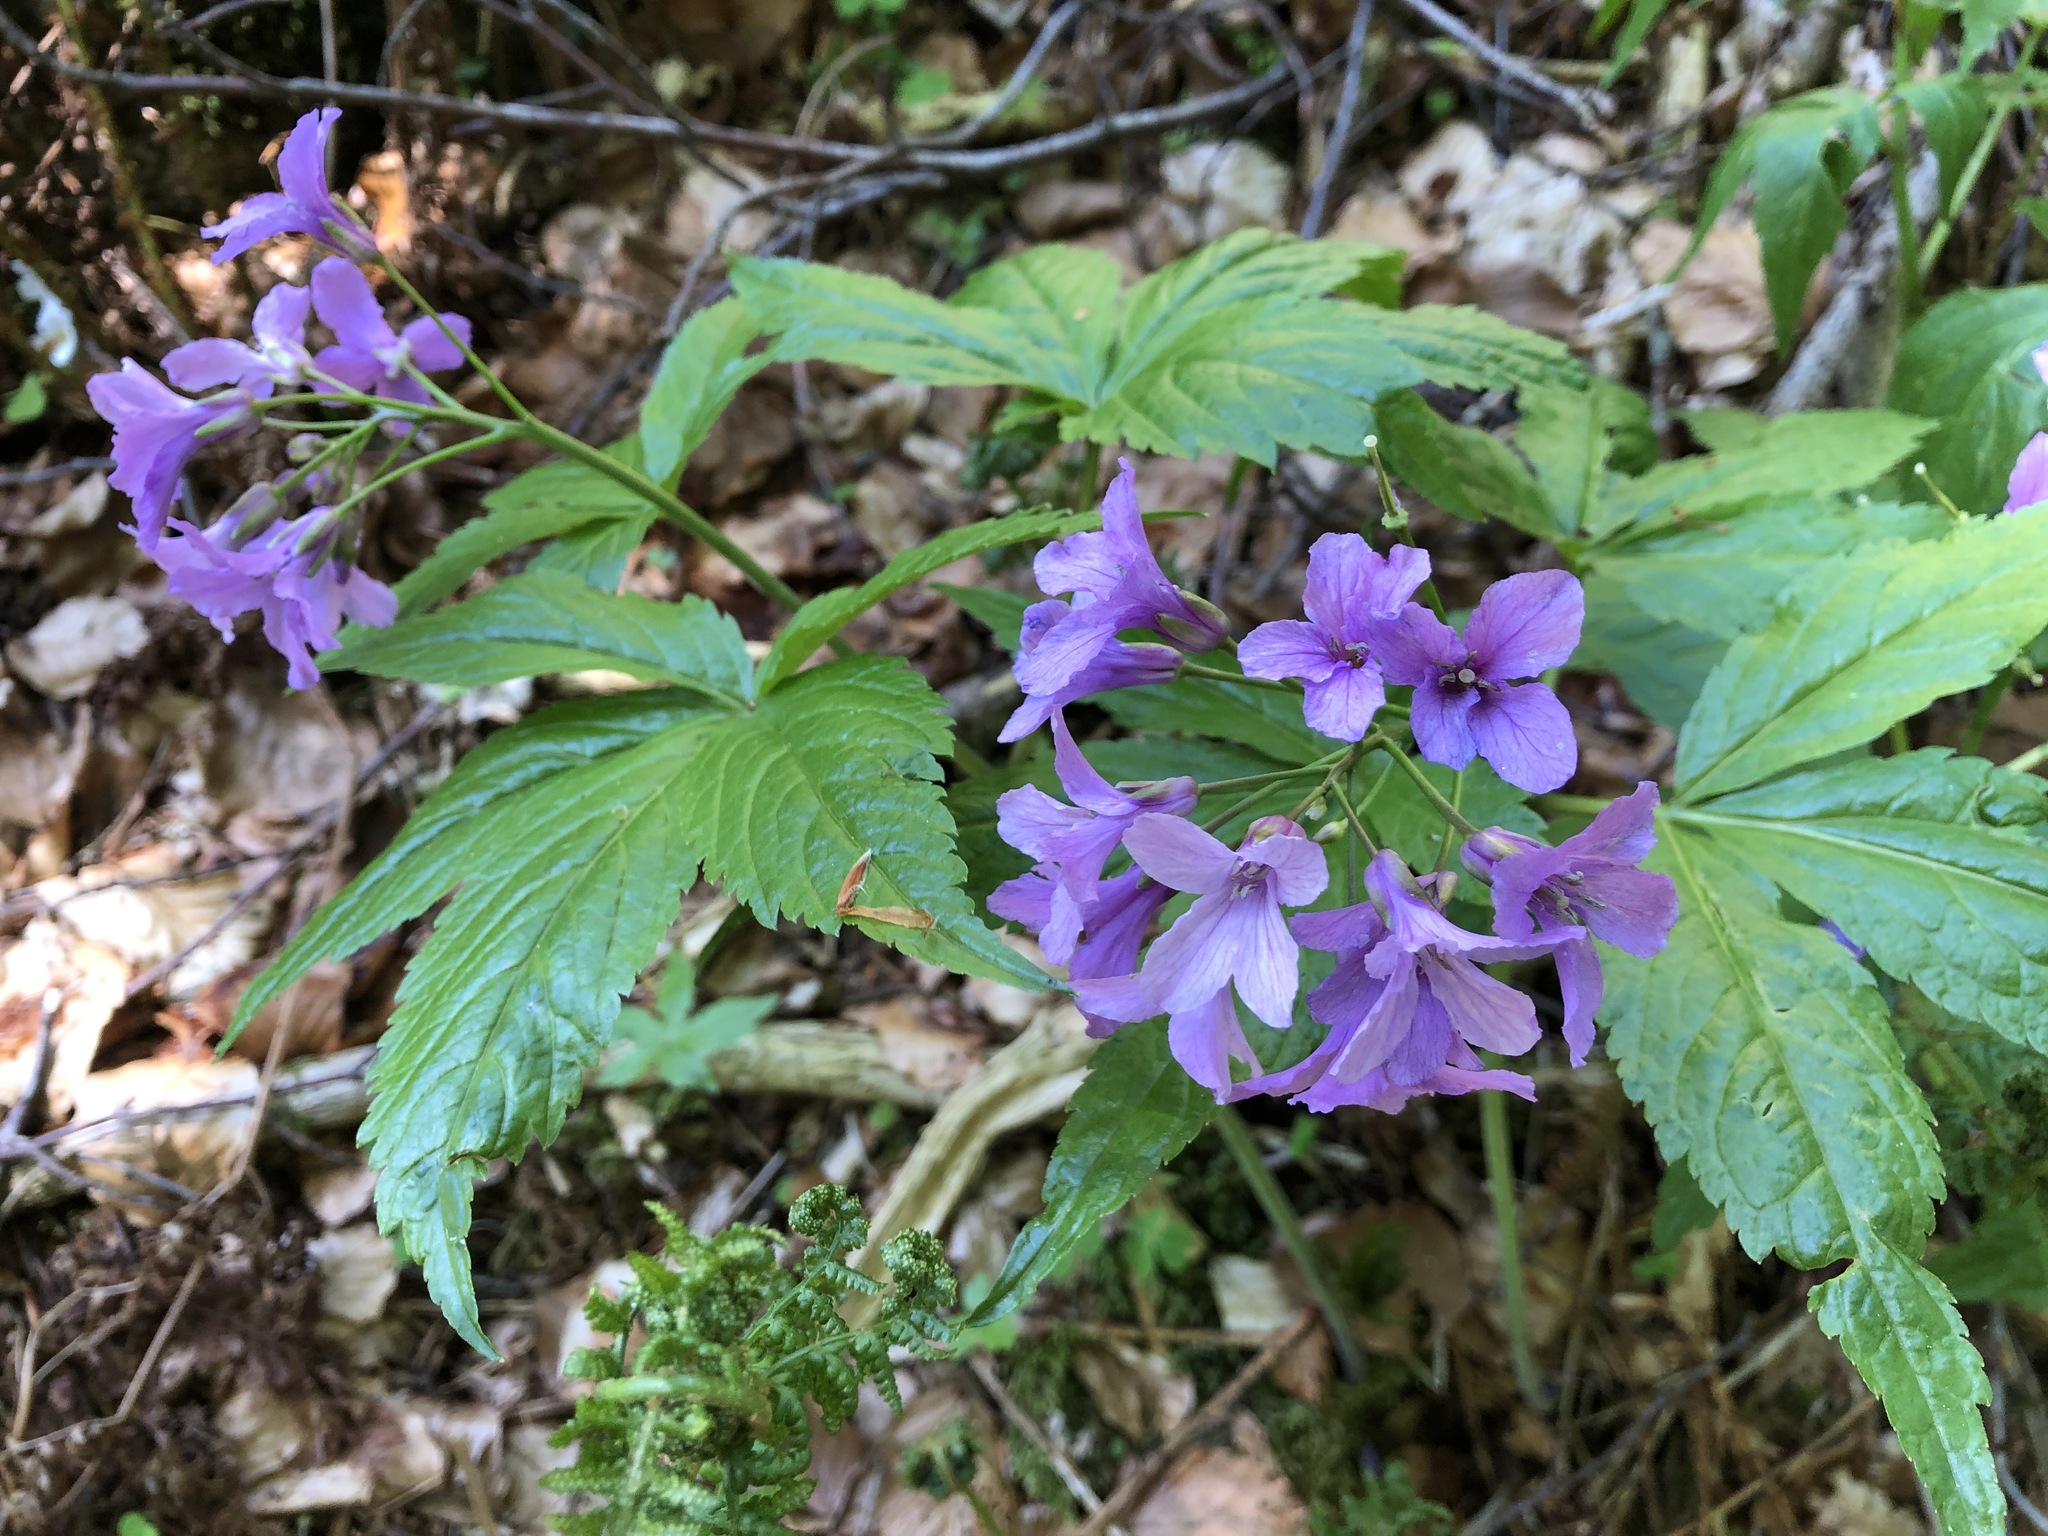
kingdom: Plantae
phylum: Tracheophyta
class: Magnoliopsida
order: Brassicales
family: Brassicaceae
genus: Cardamine
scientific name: Cardamine pentaphyllos
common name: Five-leaflet bitter-cress
